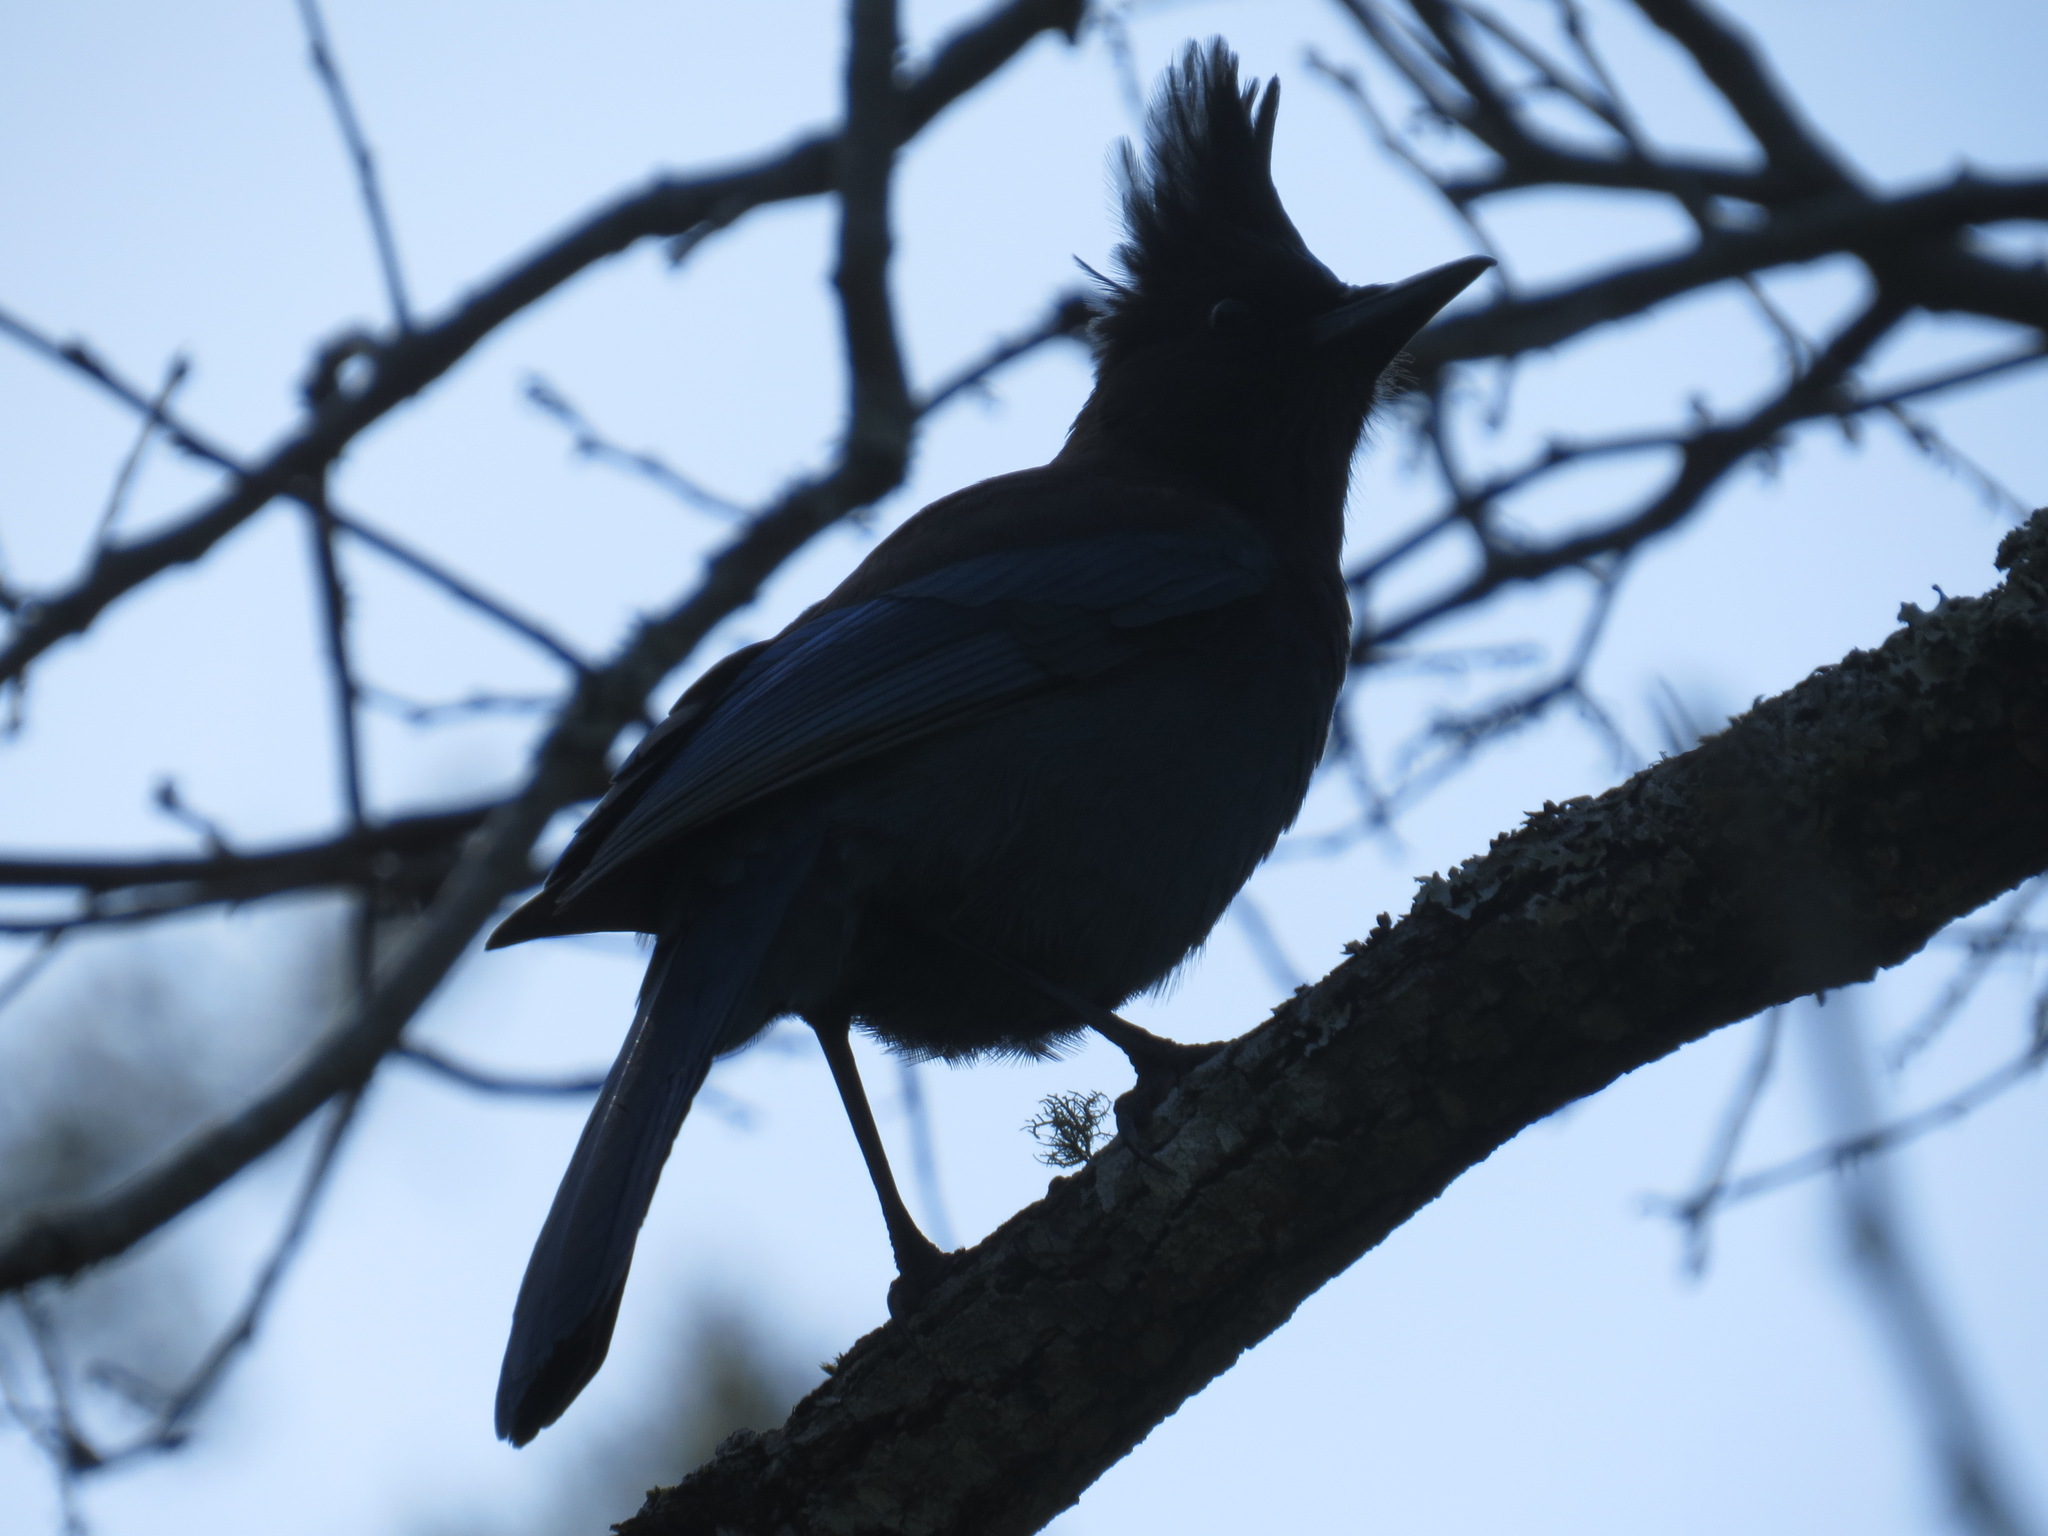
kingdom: Animalia
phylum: Chordata
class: Aves
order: Passeriformes
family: Corvidae
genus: Cyanocitta
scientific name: Cyanocitta stelleri
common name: Steller's jay
